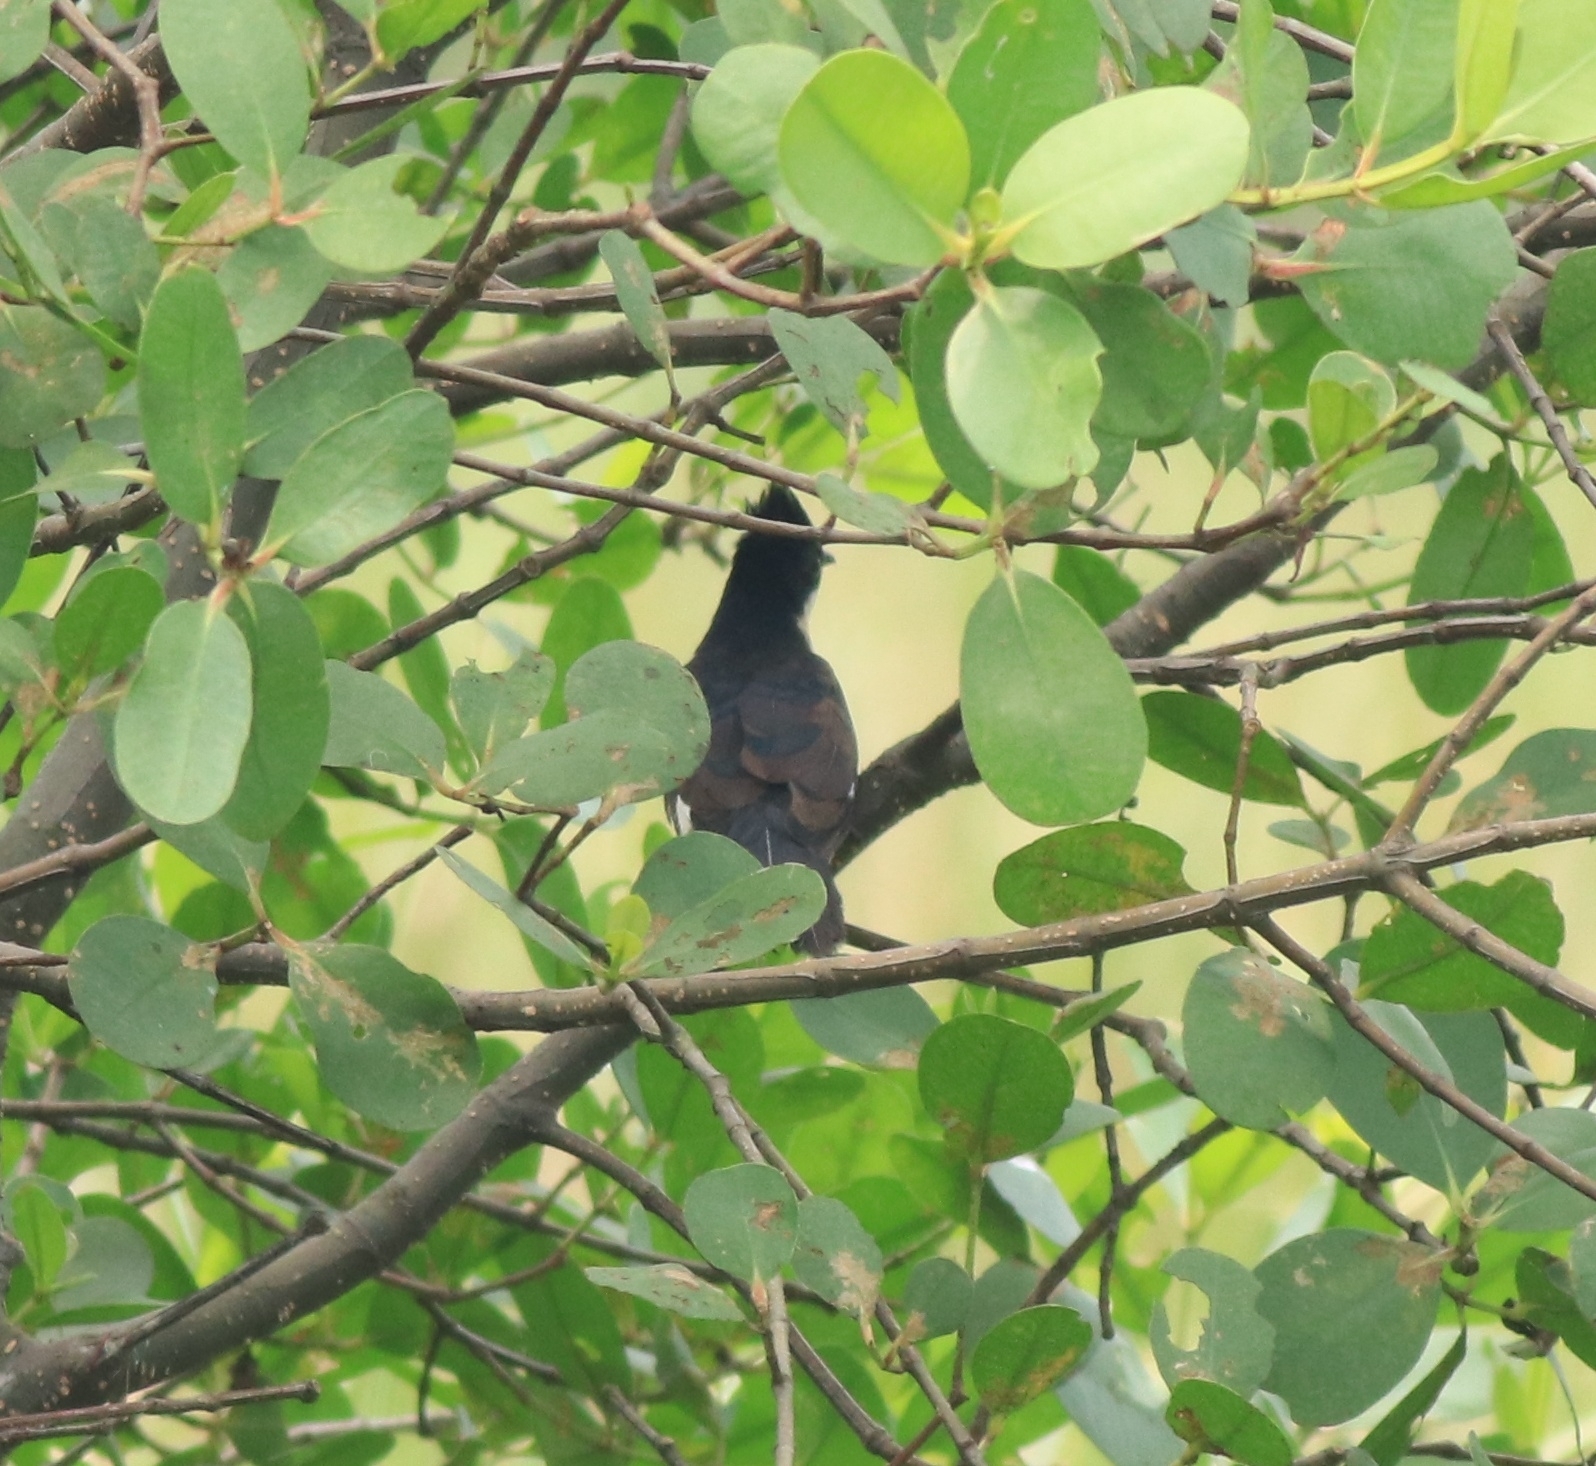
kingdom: Animalia
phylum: Chordata
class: Aves
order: Cuculiformes
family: Cuculidae
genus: Clamator
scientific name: Clamator jacobinus
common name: Jacobin cuckoo
